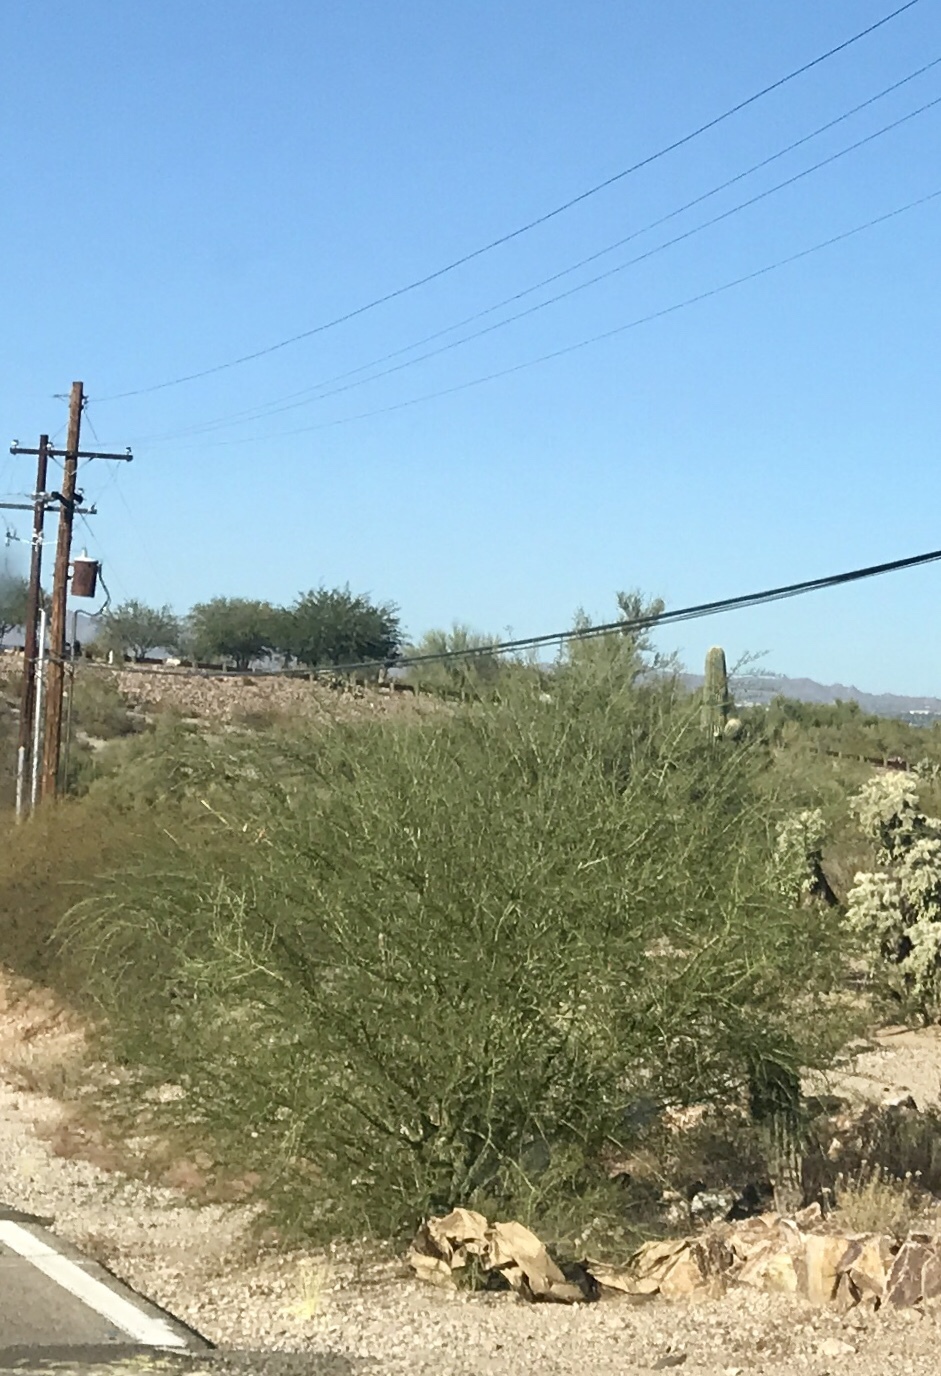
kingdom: Plantae
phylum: Tracheophyta
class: Magnoliopsida
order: Fabales
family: Fabaceae
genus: Parkinsonia
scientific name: Parkinsonia florida
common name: Blue paloverde
